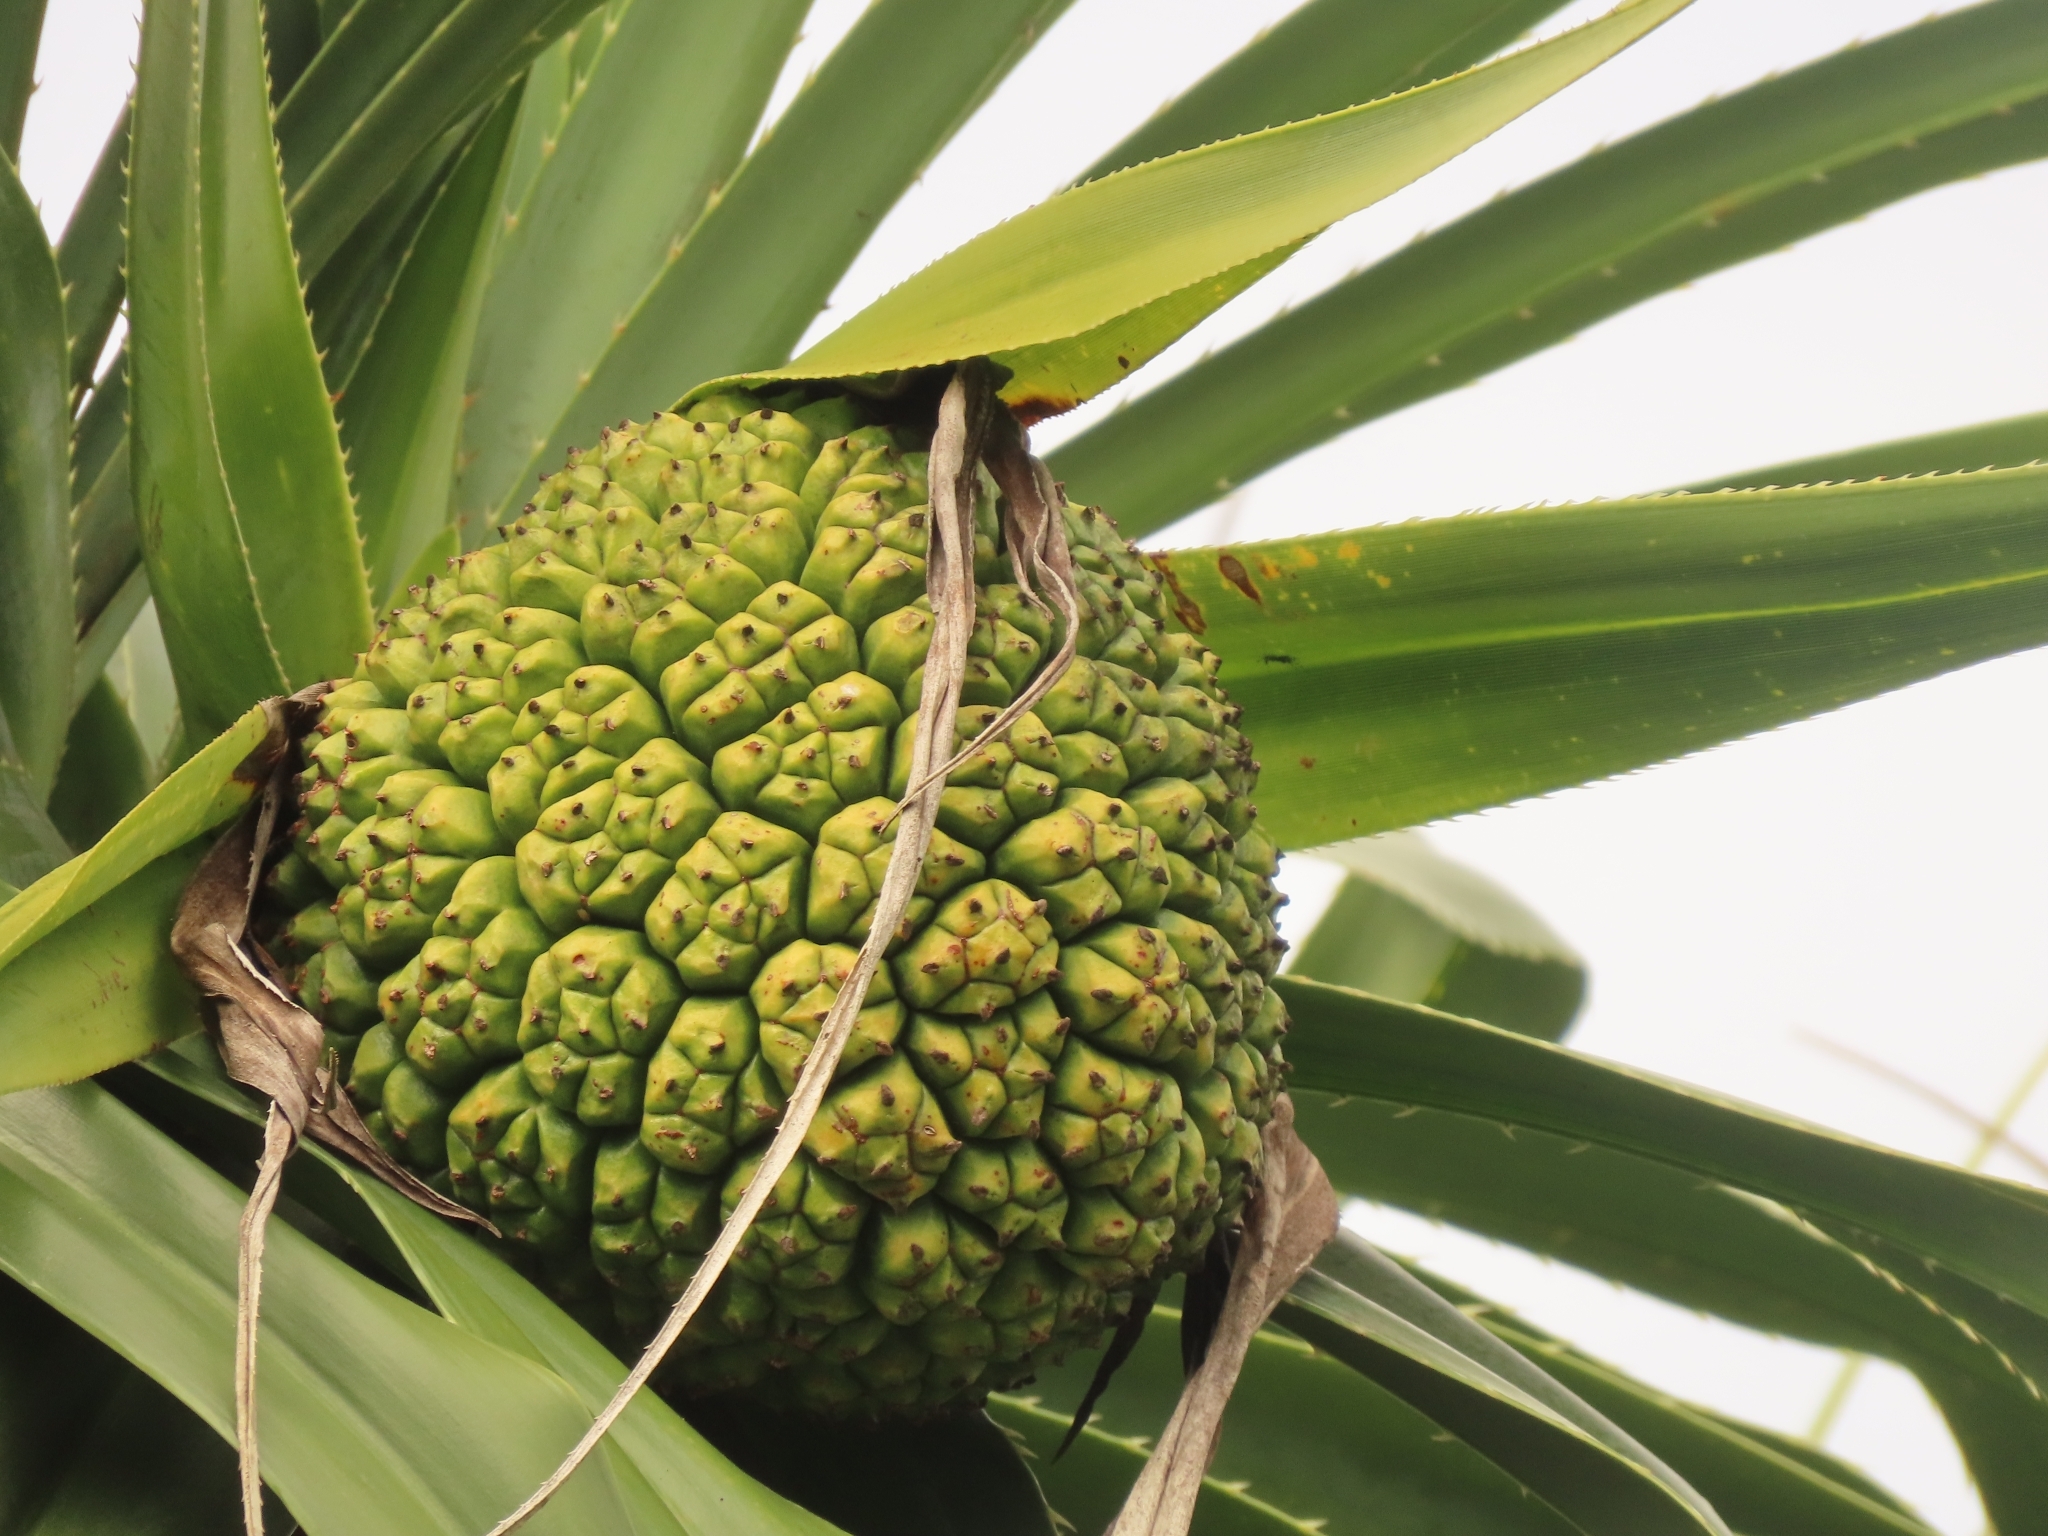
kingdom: Plantae
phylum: Tracheophyta
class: Liliopsida
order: Pandanales
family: Pandanaceae
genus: Pandanus
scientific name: Pandanus odorifer
